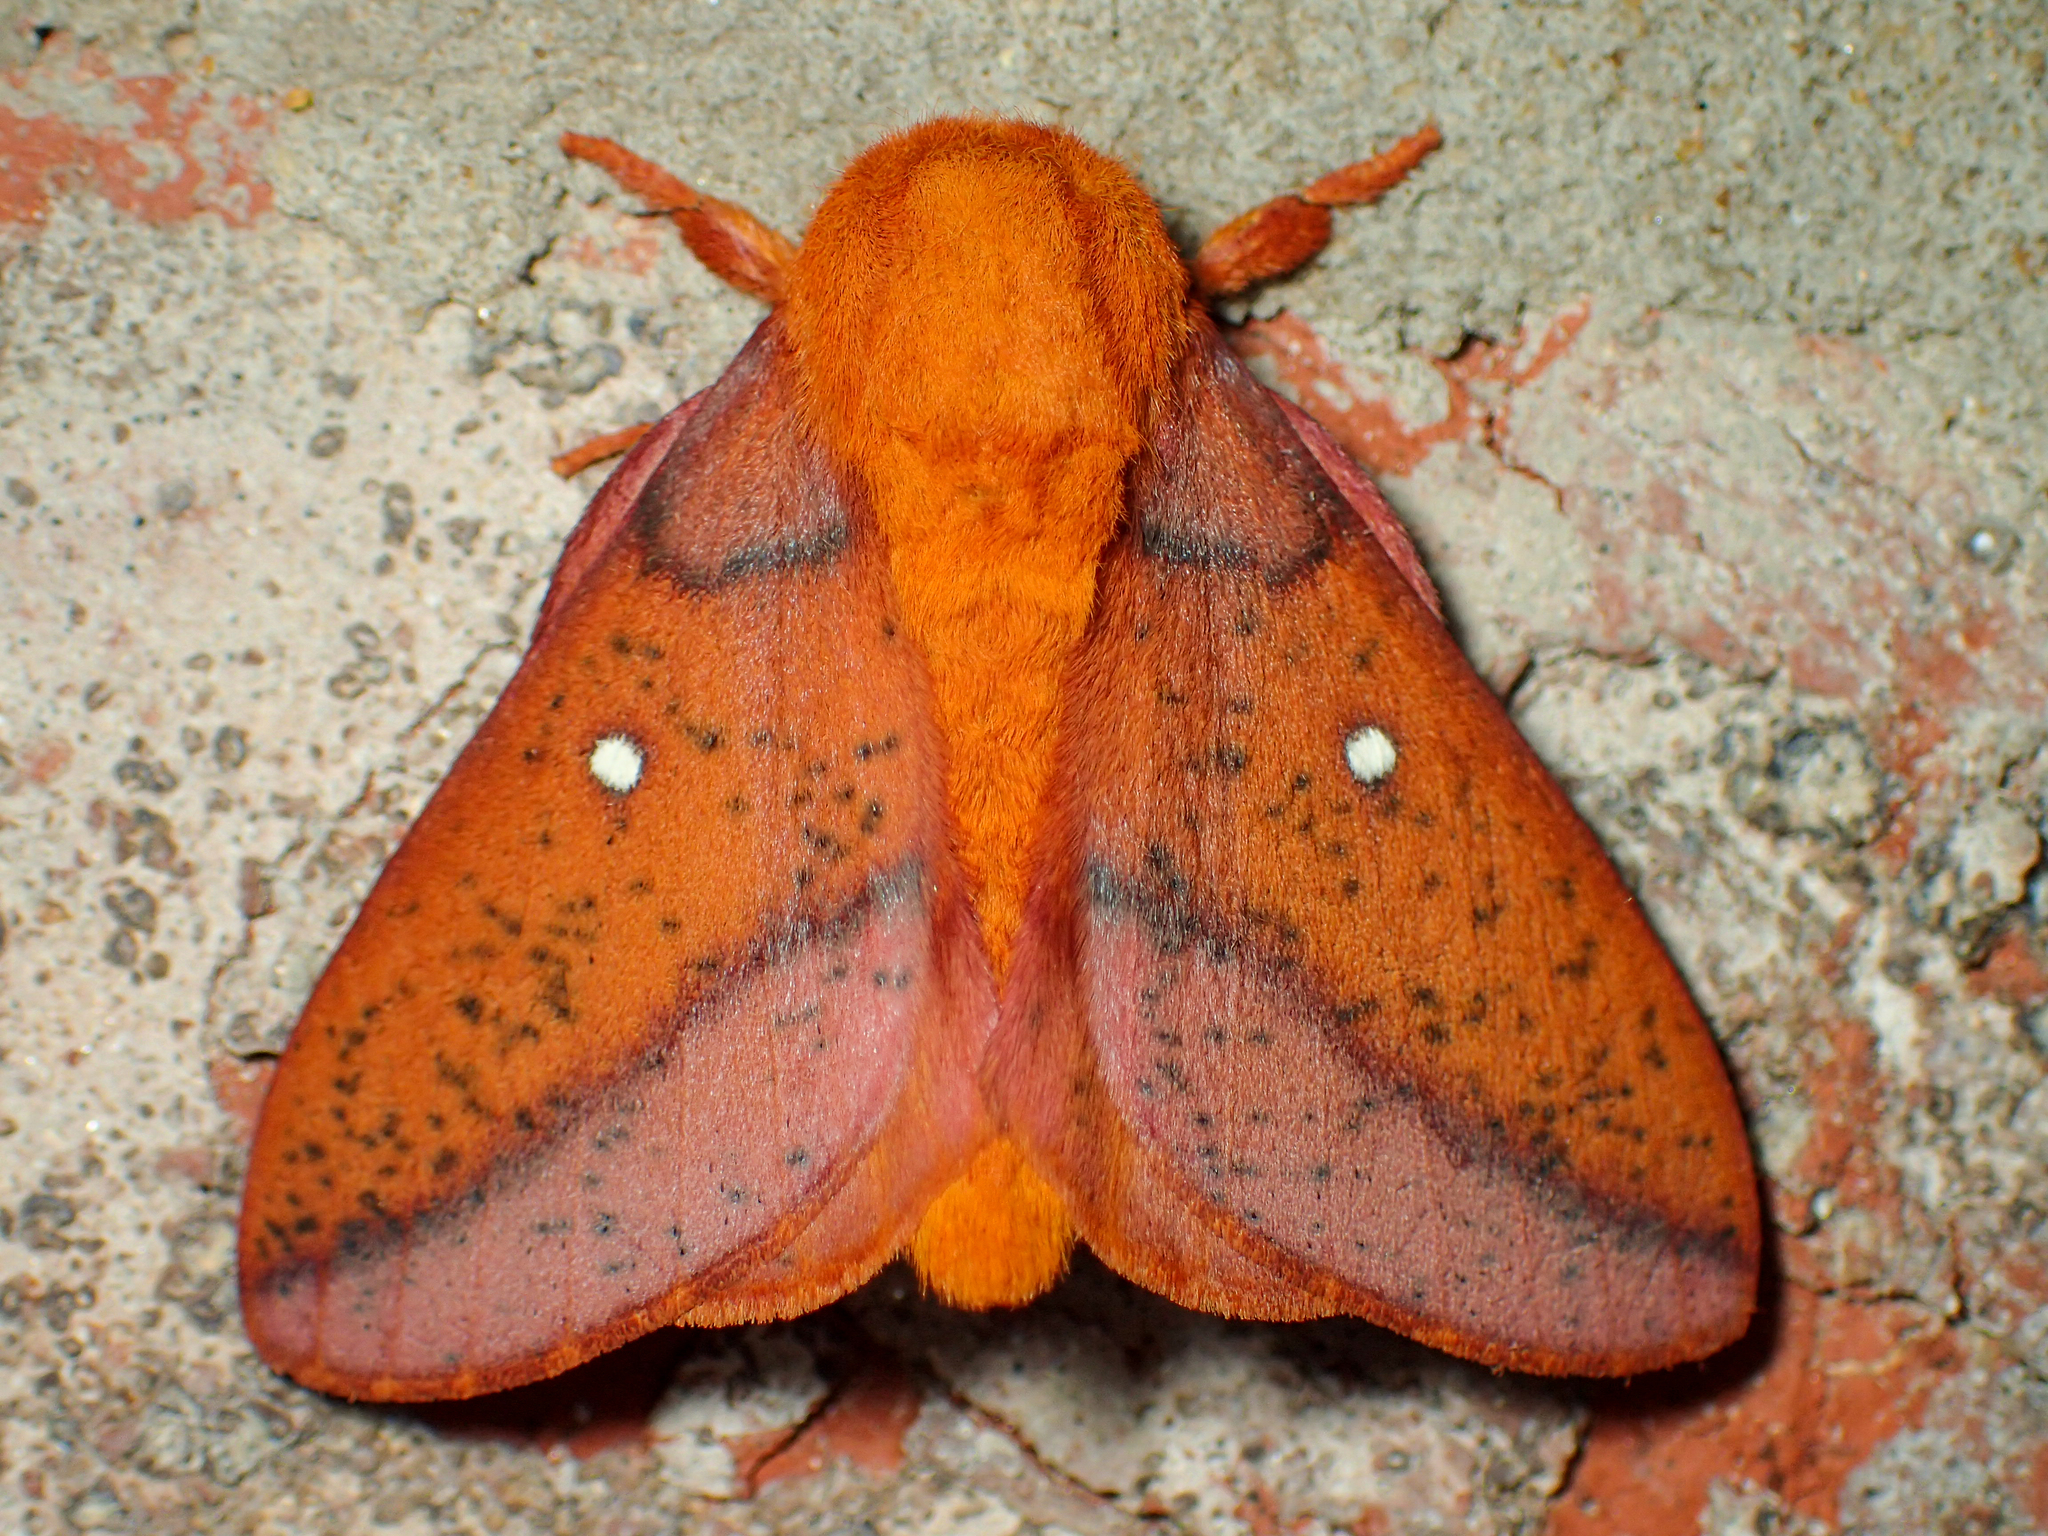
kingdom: Animalia
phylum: Arthropoda
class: Insecta
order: Lepidoptera
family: Saturniidae
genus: Anisota
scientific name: Anisota stigma
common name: Spiny oakworm moth
